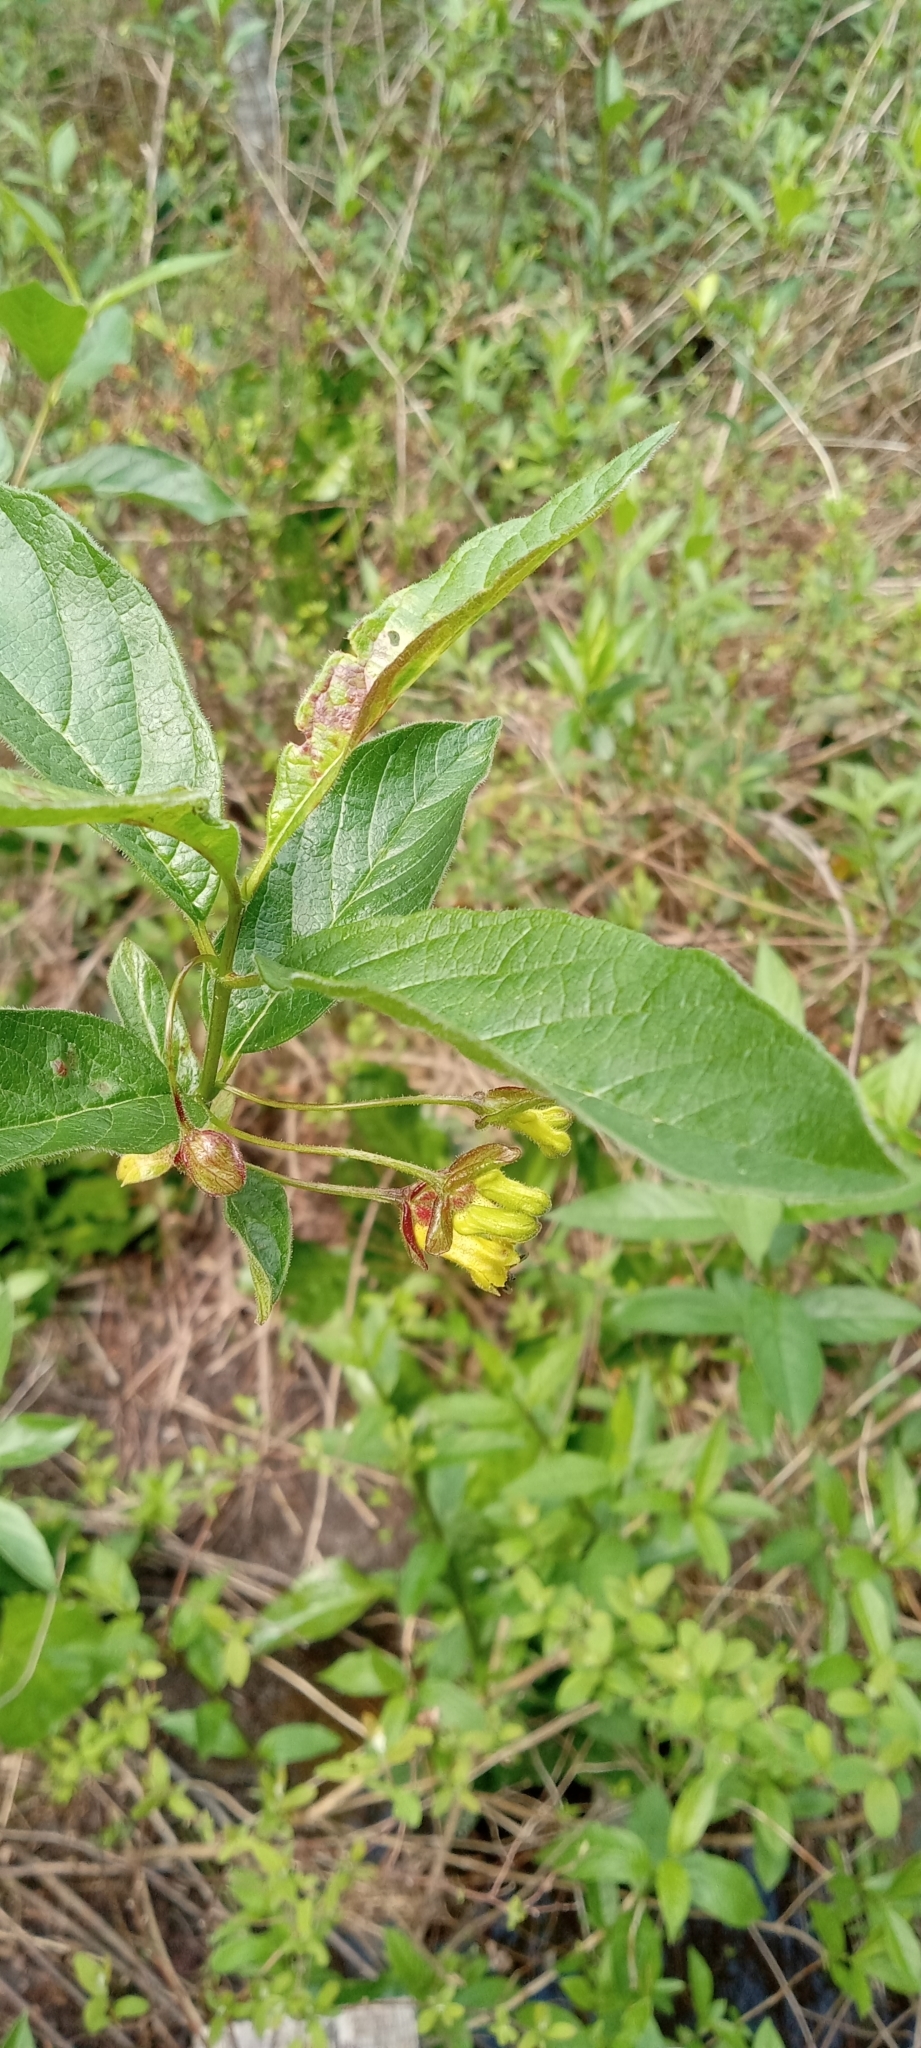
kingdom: Plantae
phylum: Tracheophyta
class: Magnoliopsida
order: Dipsacales
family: Caprifoliaceae
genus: Lonicera
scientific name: Lonicera involucrata
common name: Californian honeysuckle
